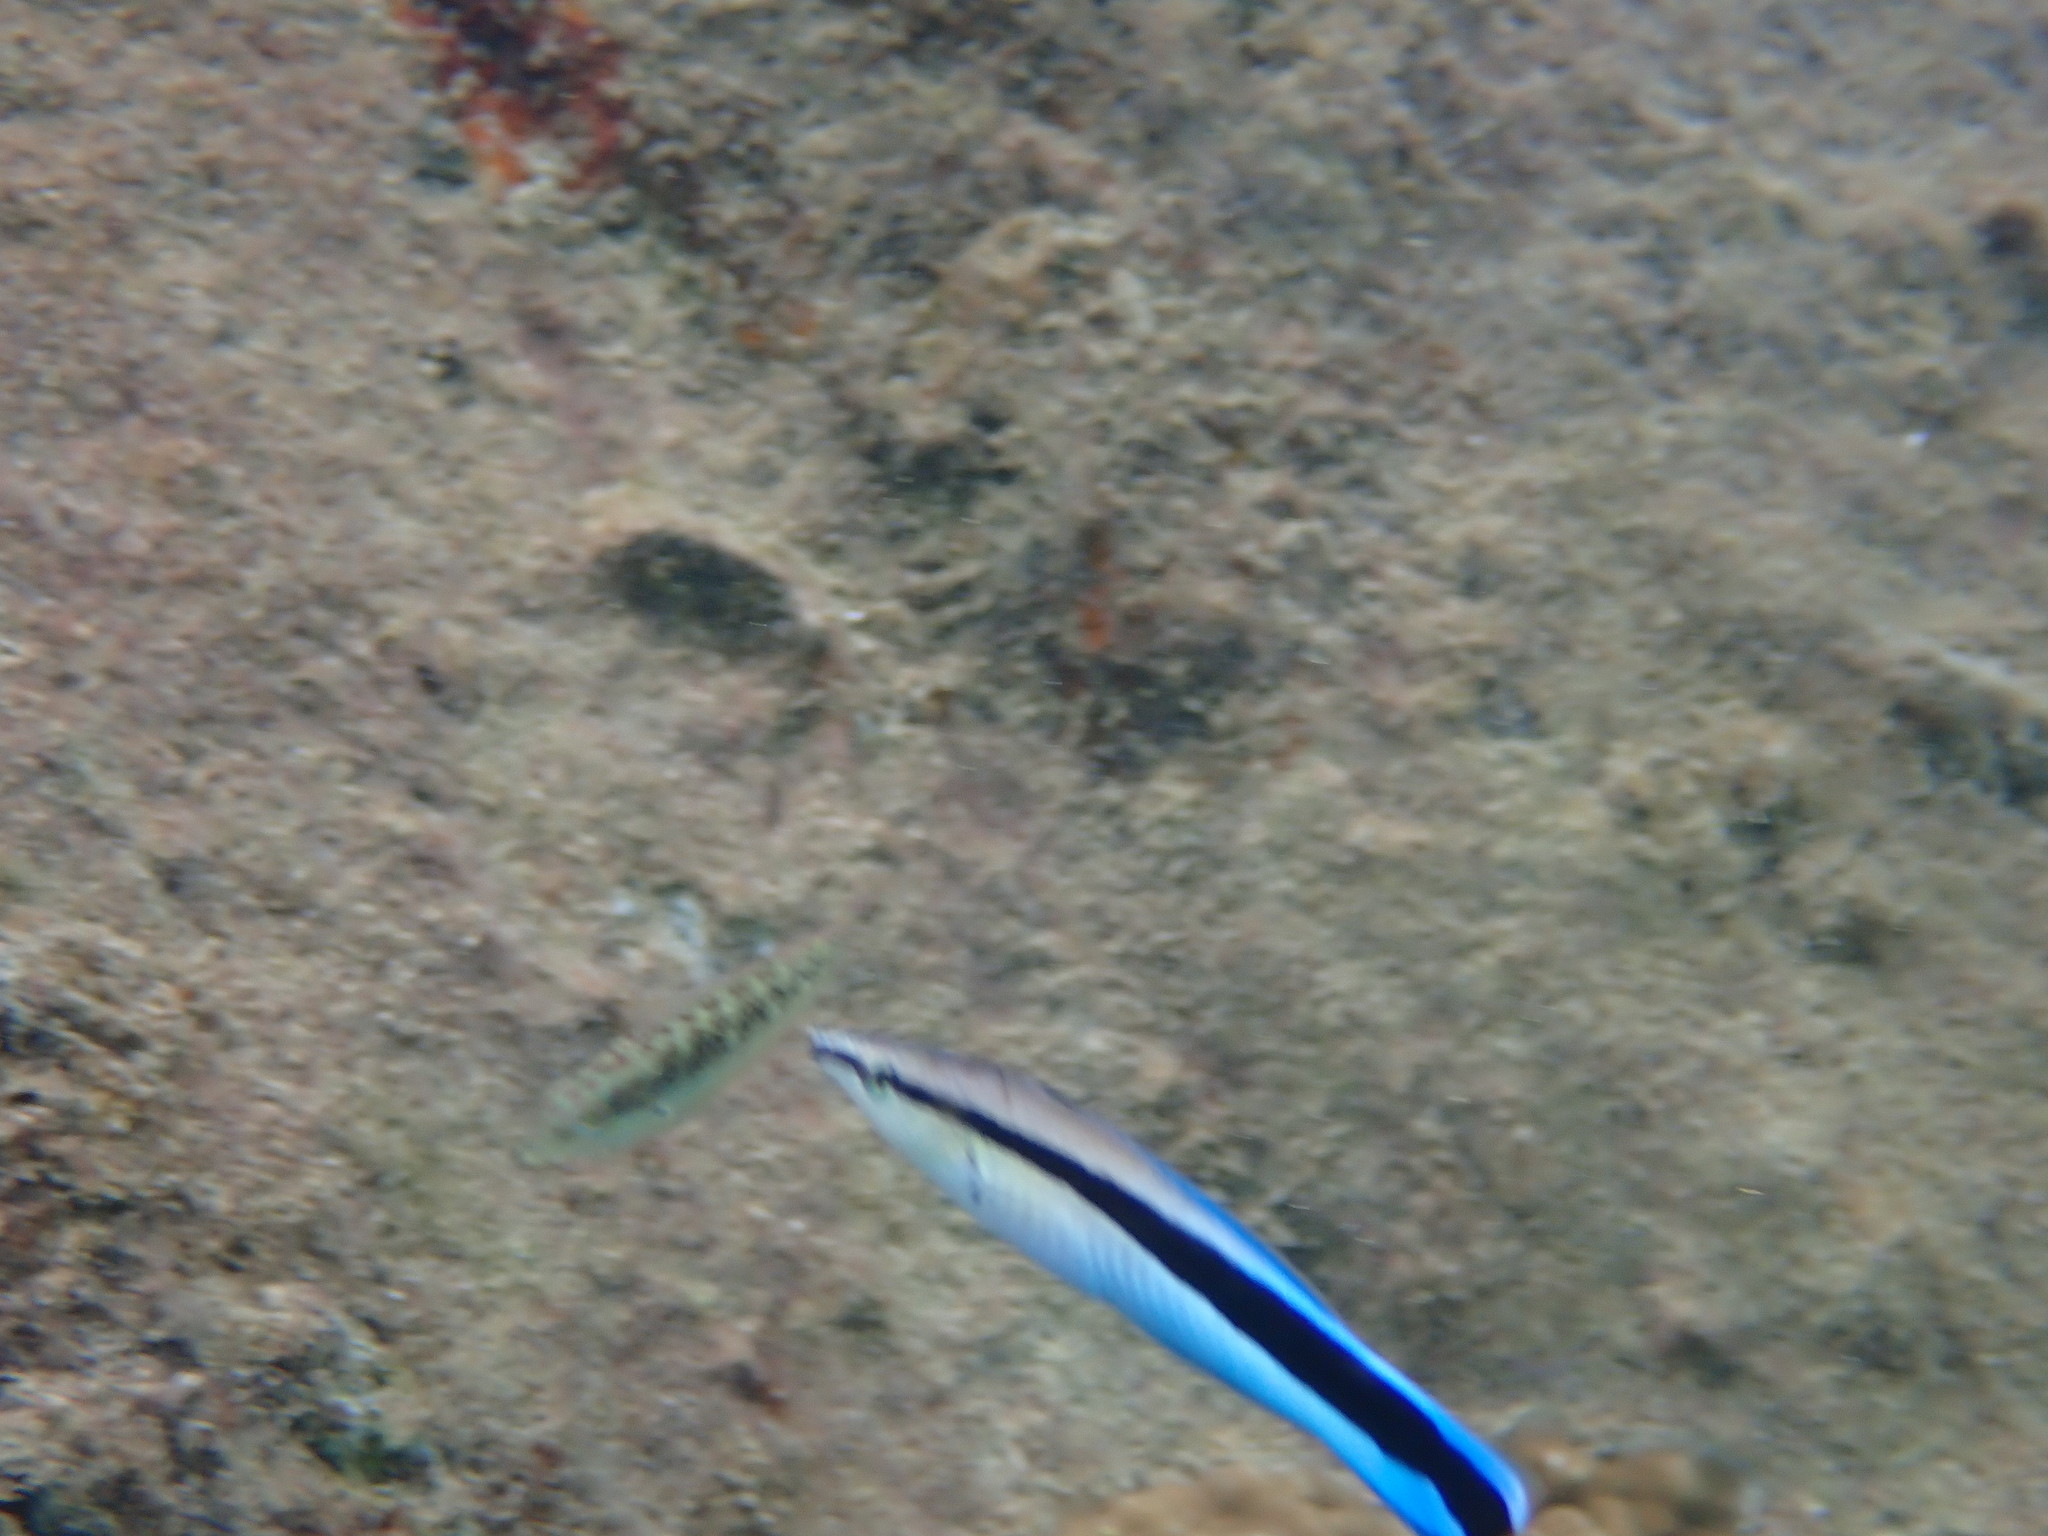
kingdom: Animalia
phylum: Chordata
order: Perciformes
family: Labridae
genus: Labroides
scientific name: Labroides dimidiatus
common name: Blue diesel wrasse
